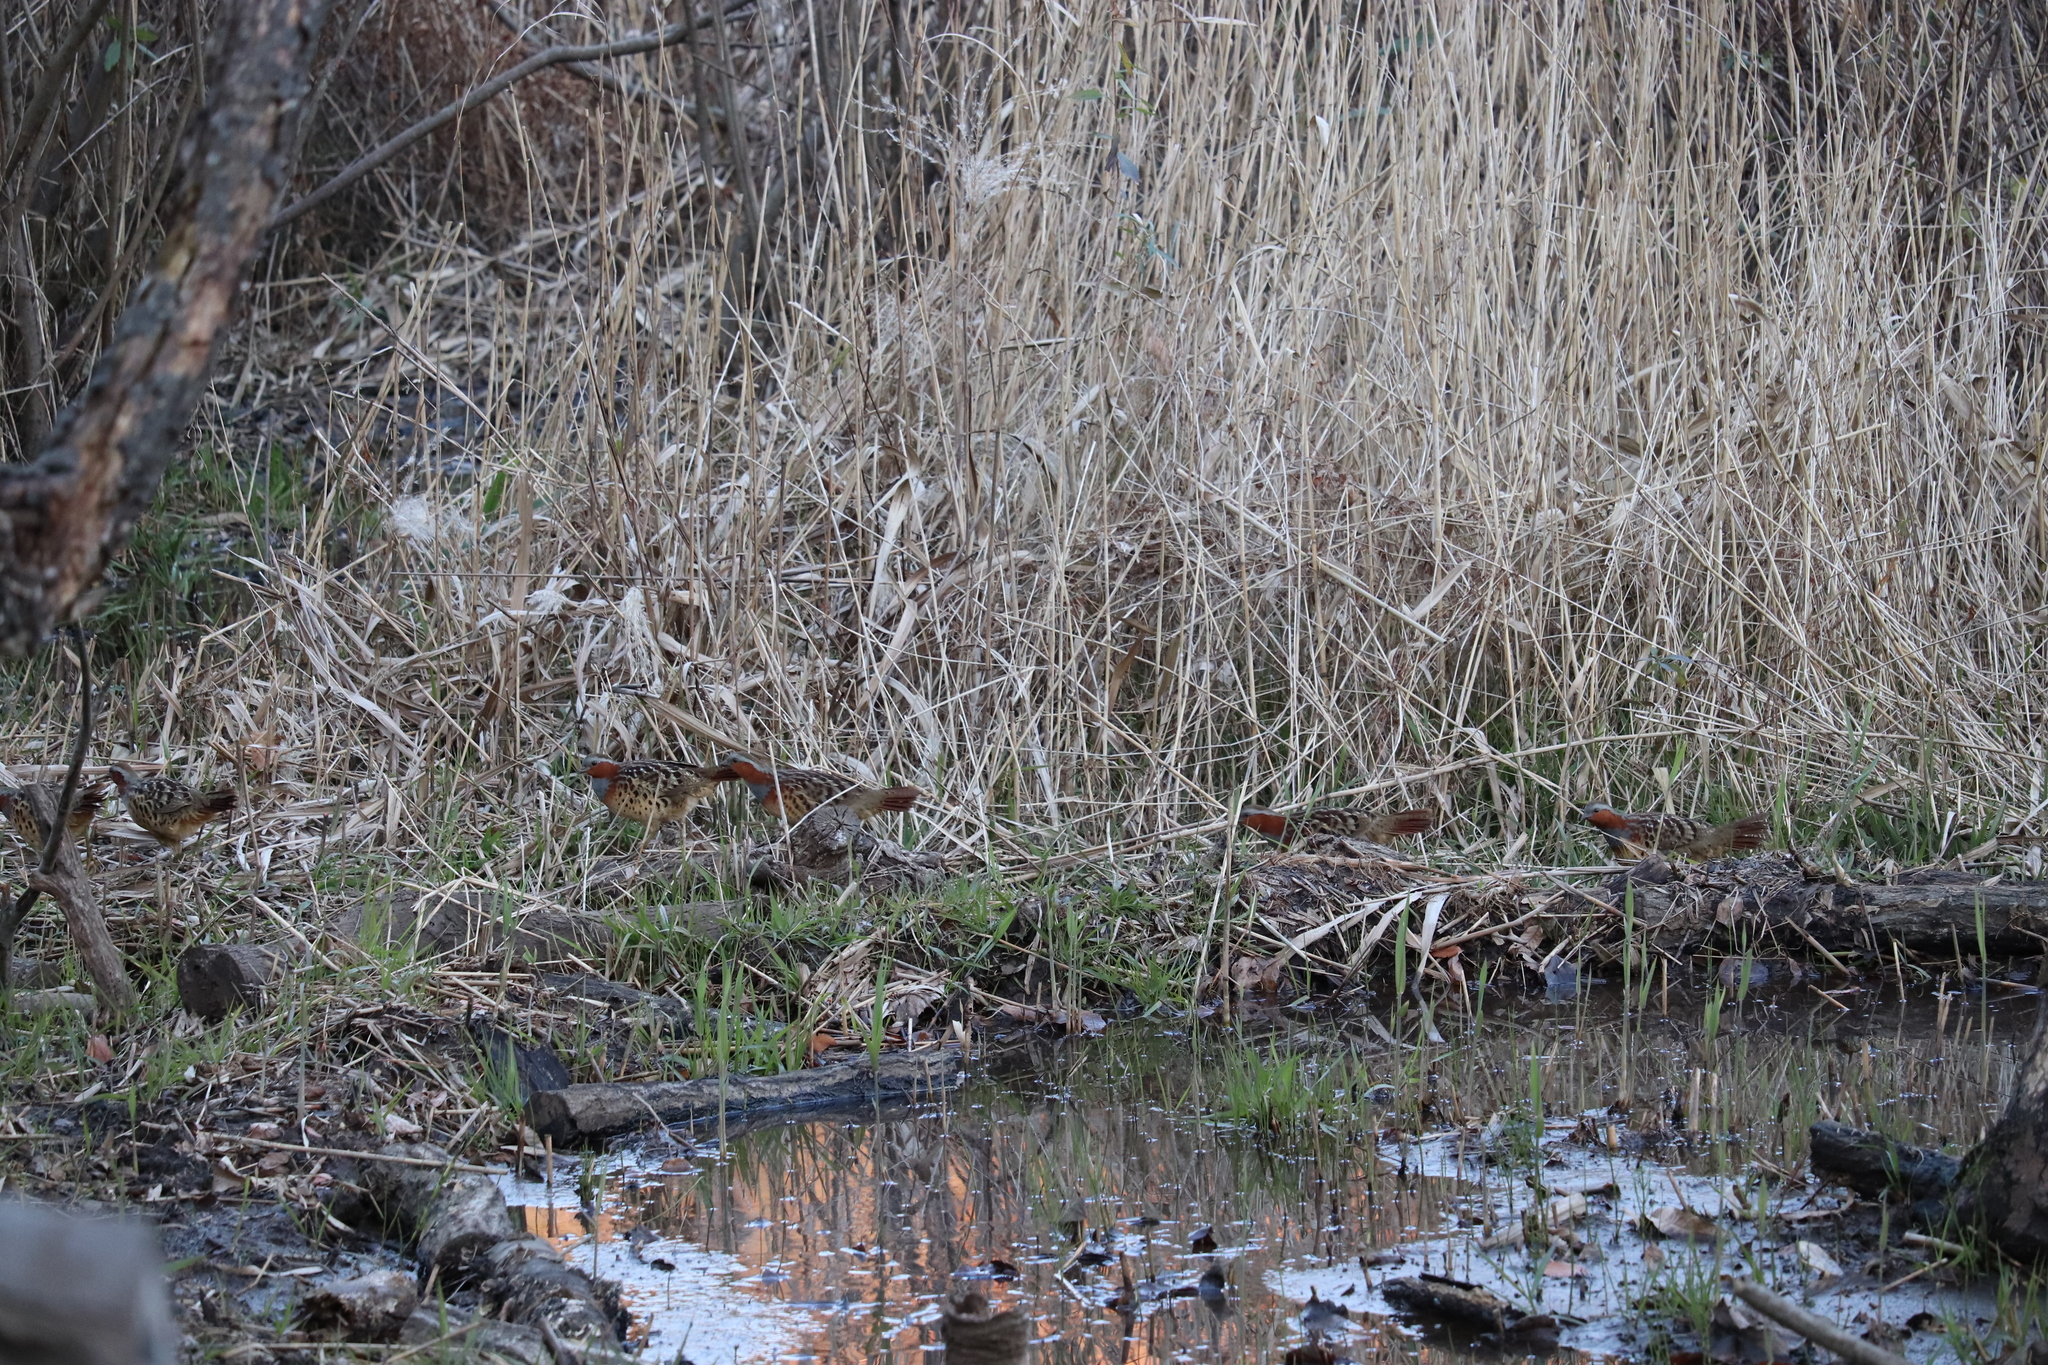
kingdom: Animalia
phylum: Chordata
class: Aves
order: Galliformes
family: Phasianidae
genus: Bambusicola
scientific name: Bambusicola thoracicus
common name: Chinese bamboo partridge
